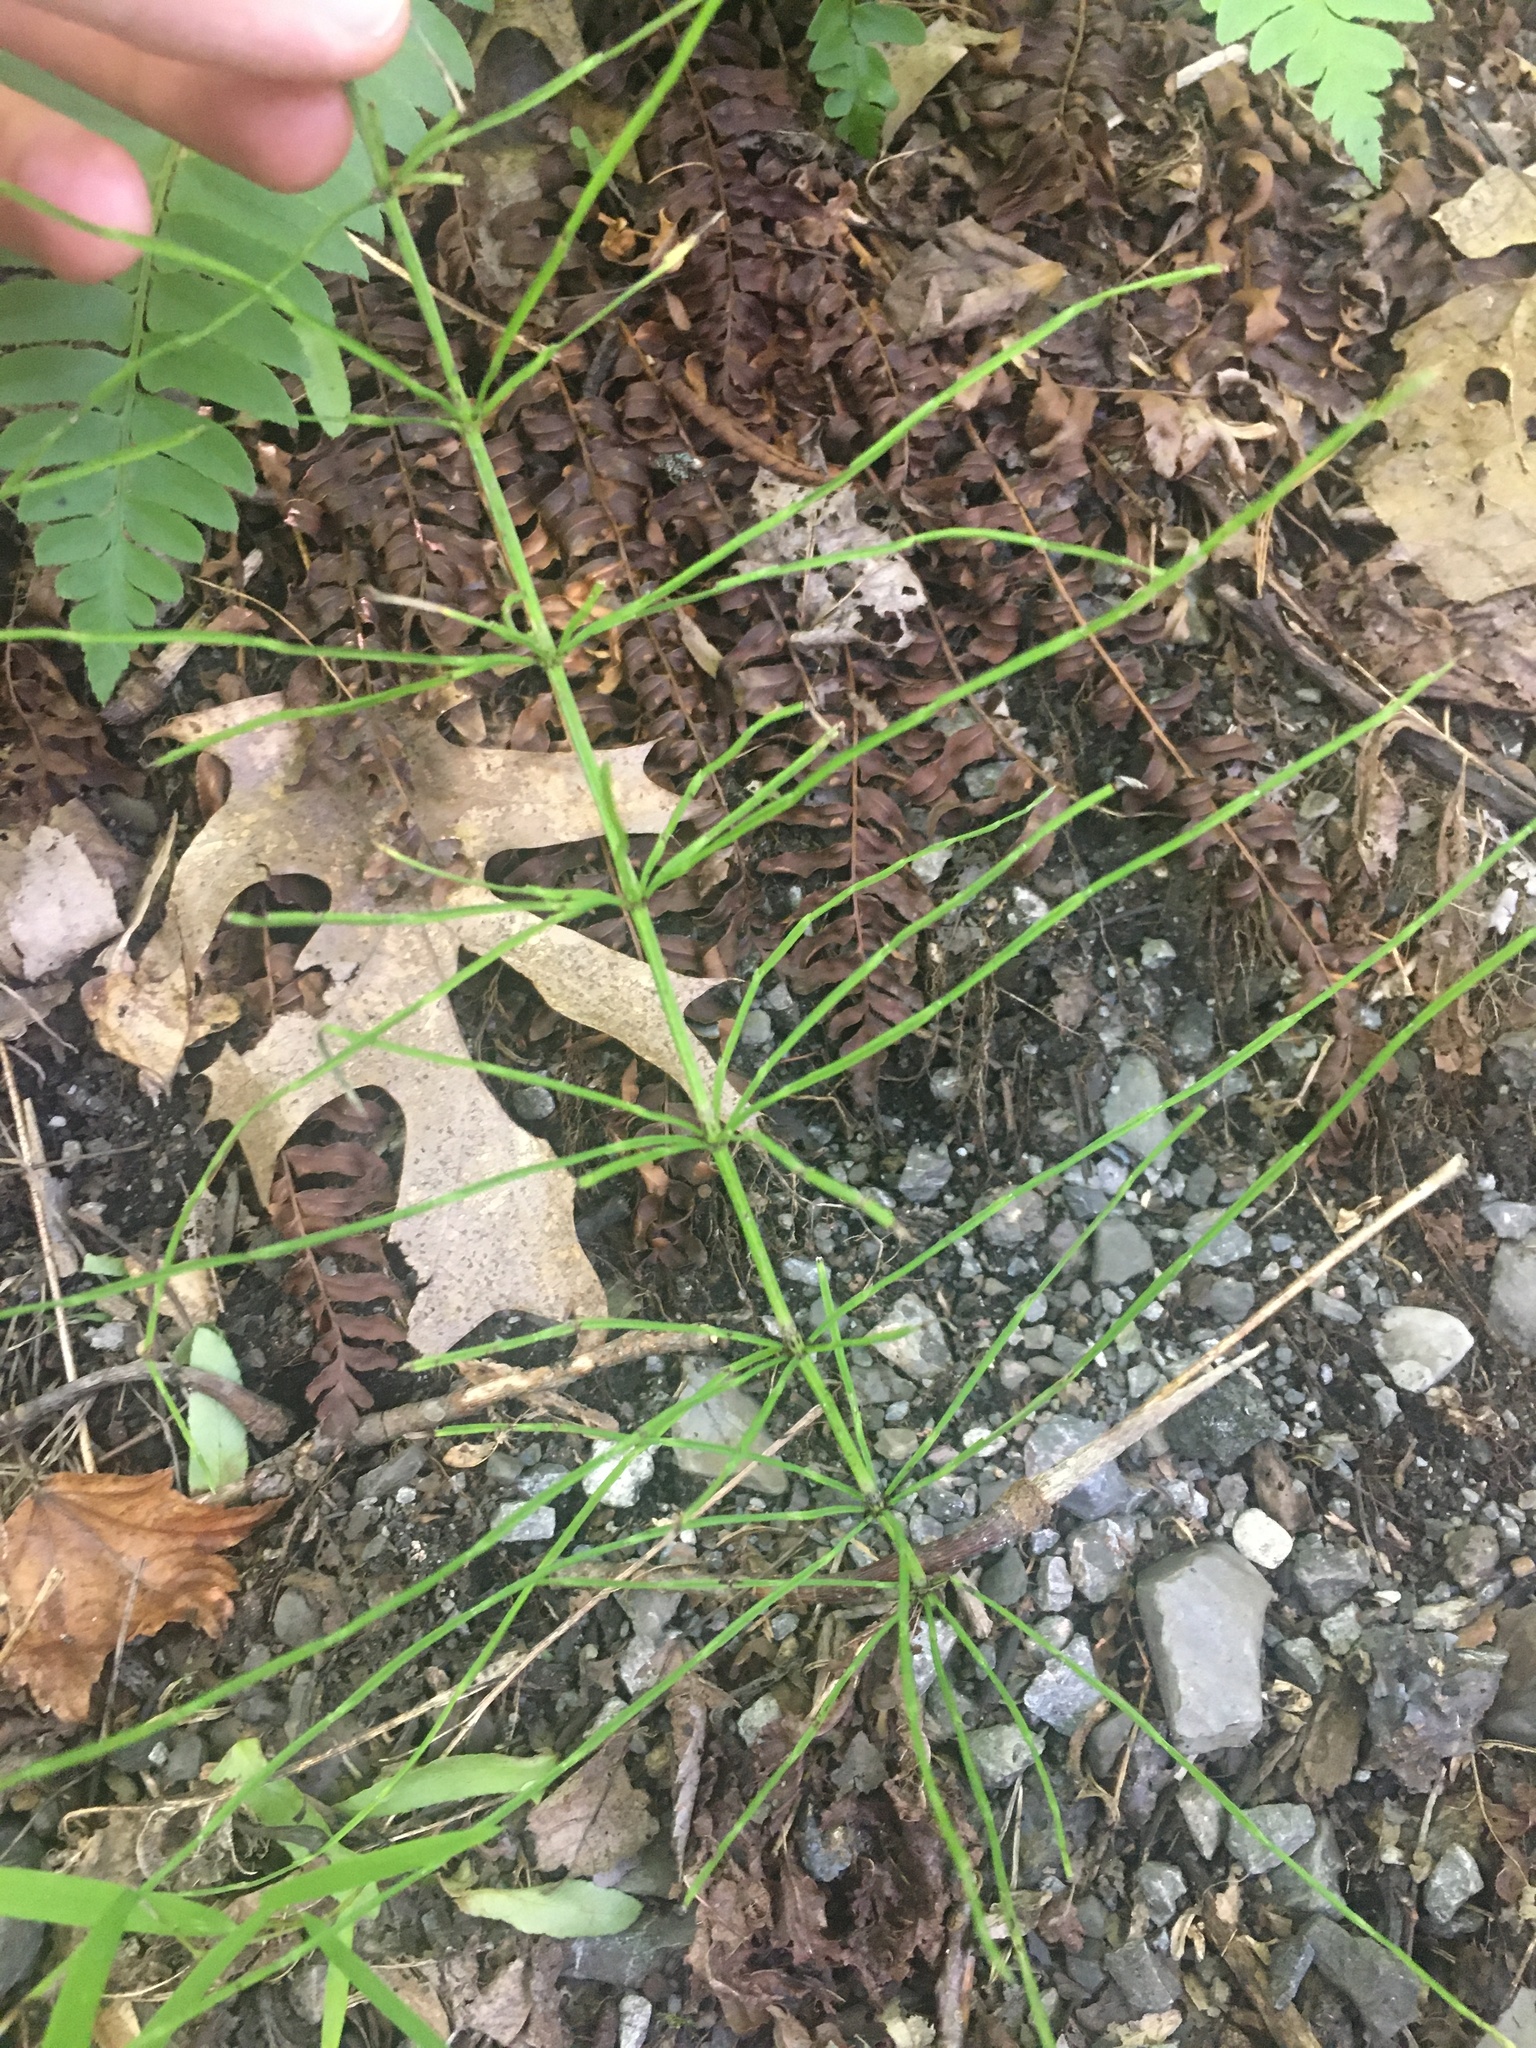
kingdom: Plantae
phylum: Tracheophyta
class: Polypodiopsida
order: Equisetales
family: Equisetaceae
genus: Equisetum
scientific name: Equisetum arvense
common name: Field horsetail
